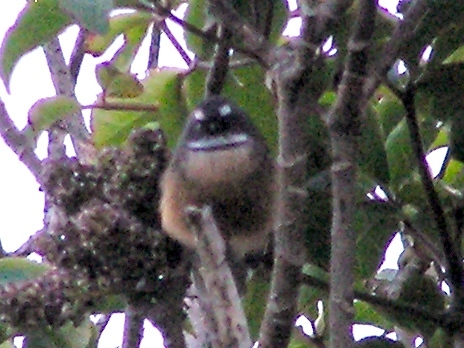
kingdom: Animalia
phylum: Chordata
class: Aves
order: Passeriformes
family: Rhipiduridae
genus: Rhipidura
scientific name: Rhipidura fuliginosa
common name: New zealand fantail
